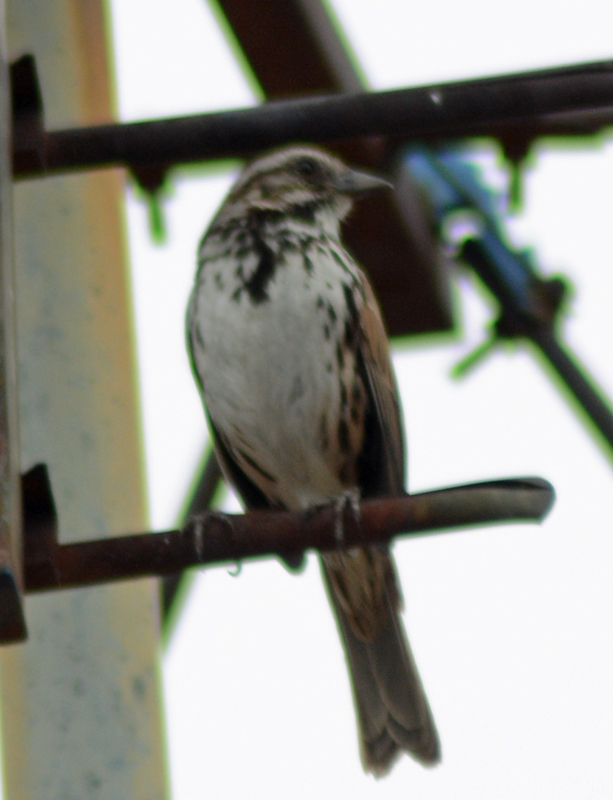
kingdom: Animalia
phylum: Chordata
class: Aves
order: Passeriformes
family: Passerellidae
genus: Melospiza
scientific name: Melospiza melodia
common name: Song sparrow
